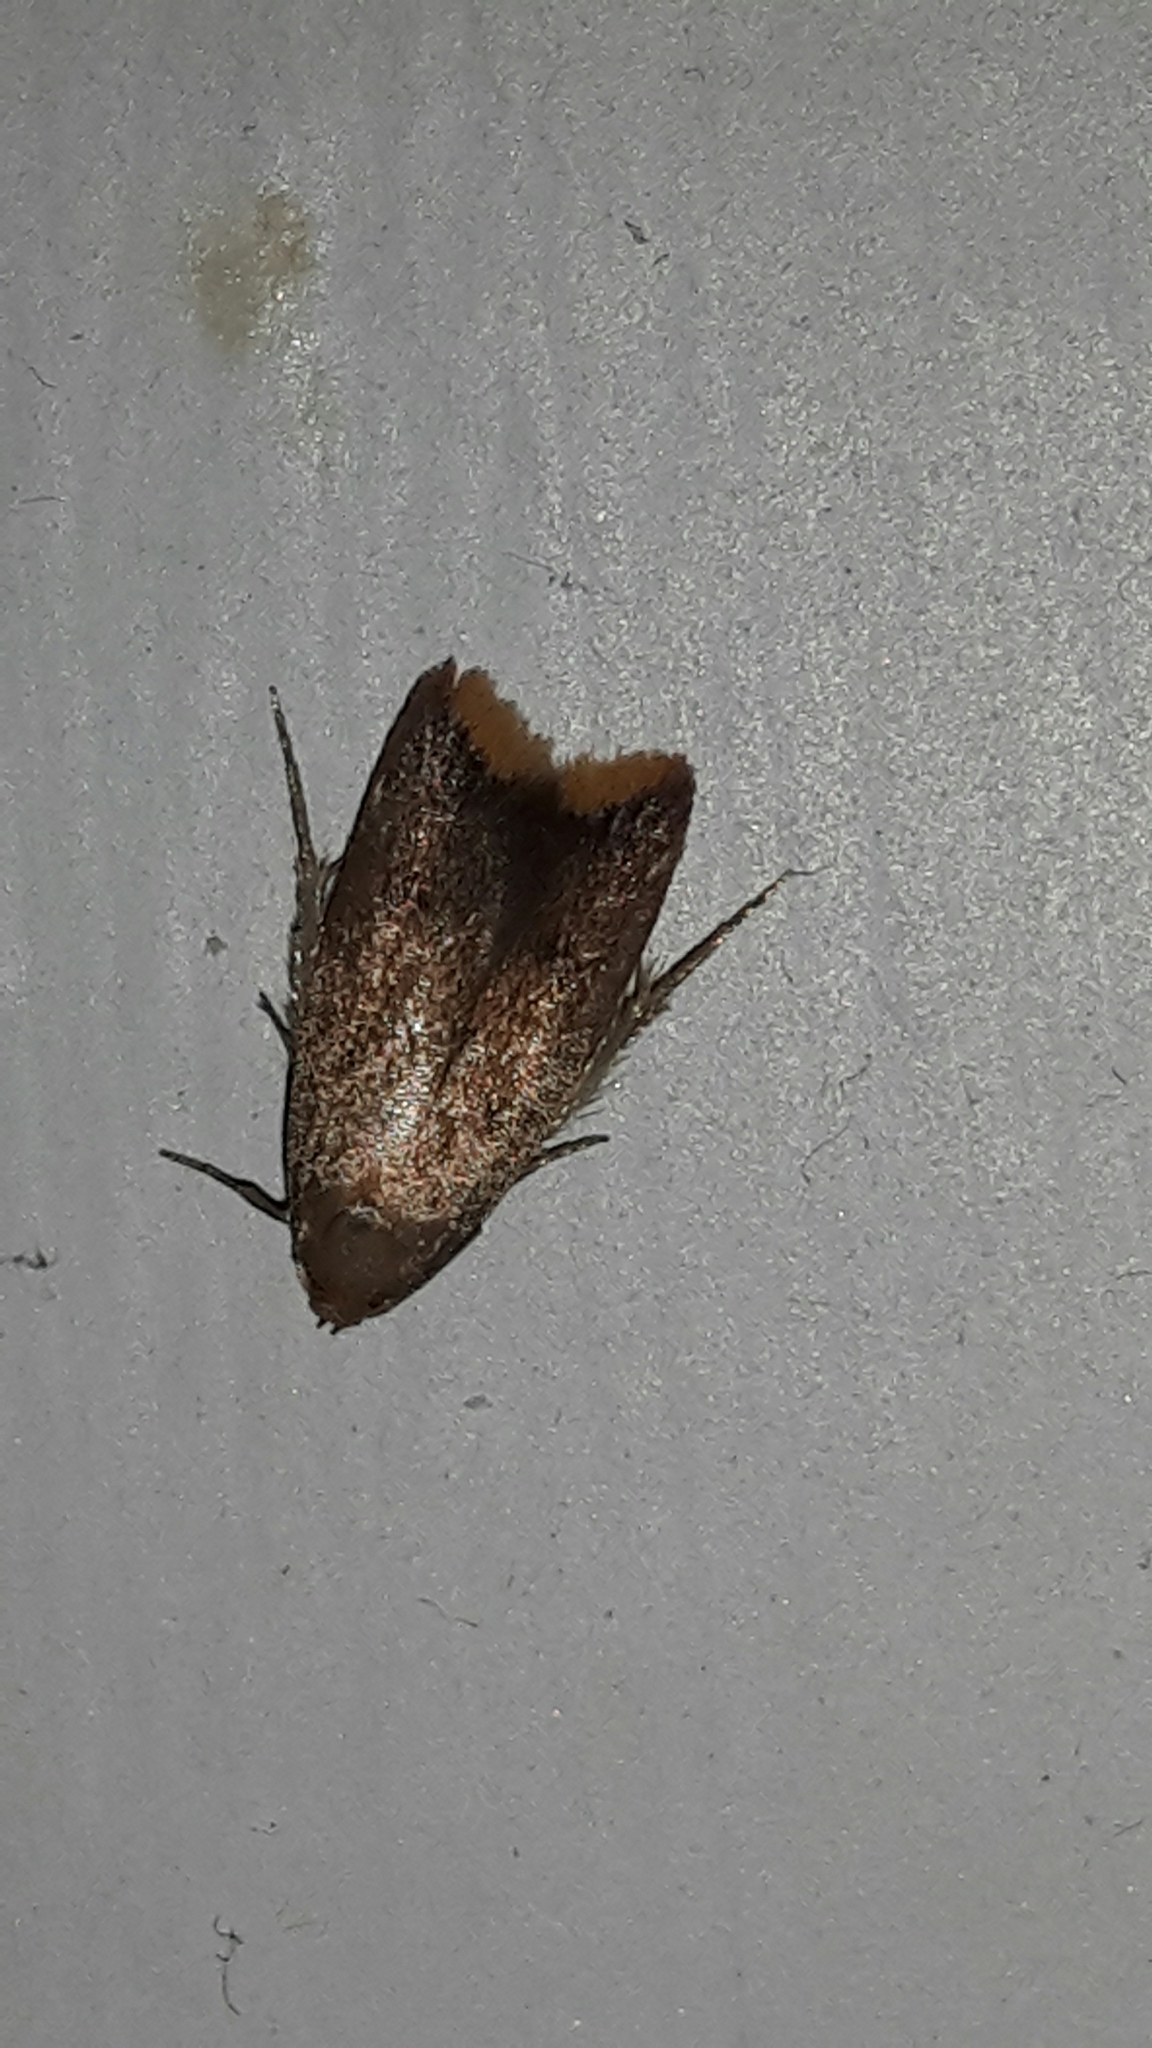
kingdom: Animalia
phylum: Arthropoda
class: Insecta
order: Lepidoptera
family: Oecophoridae
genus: Tachystola
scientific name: Tachystola acroxantha
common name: Ruddy streak
